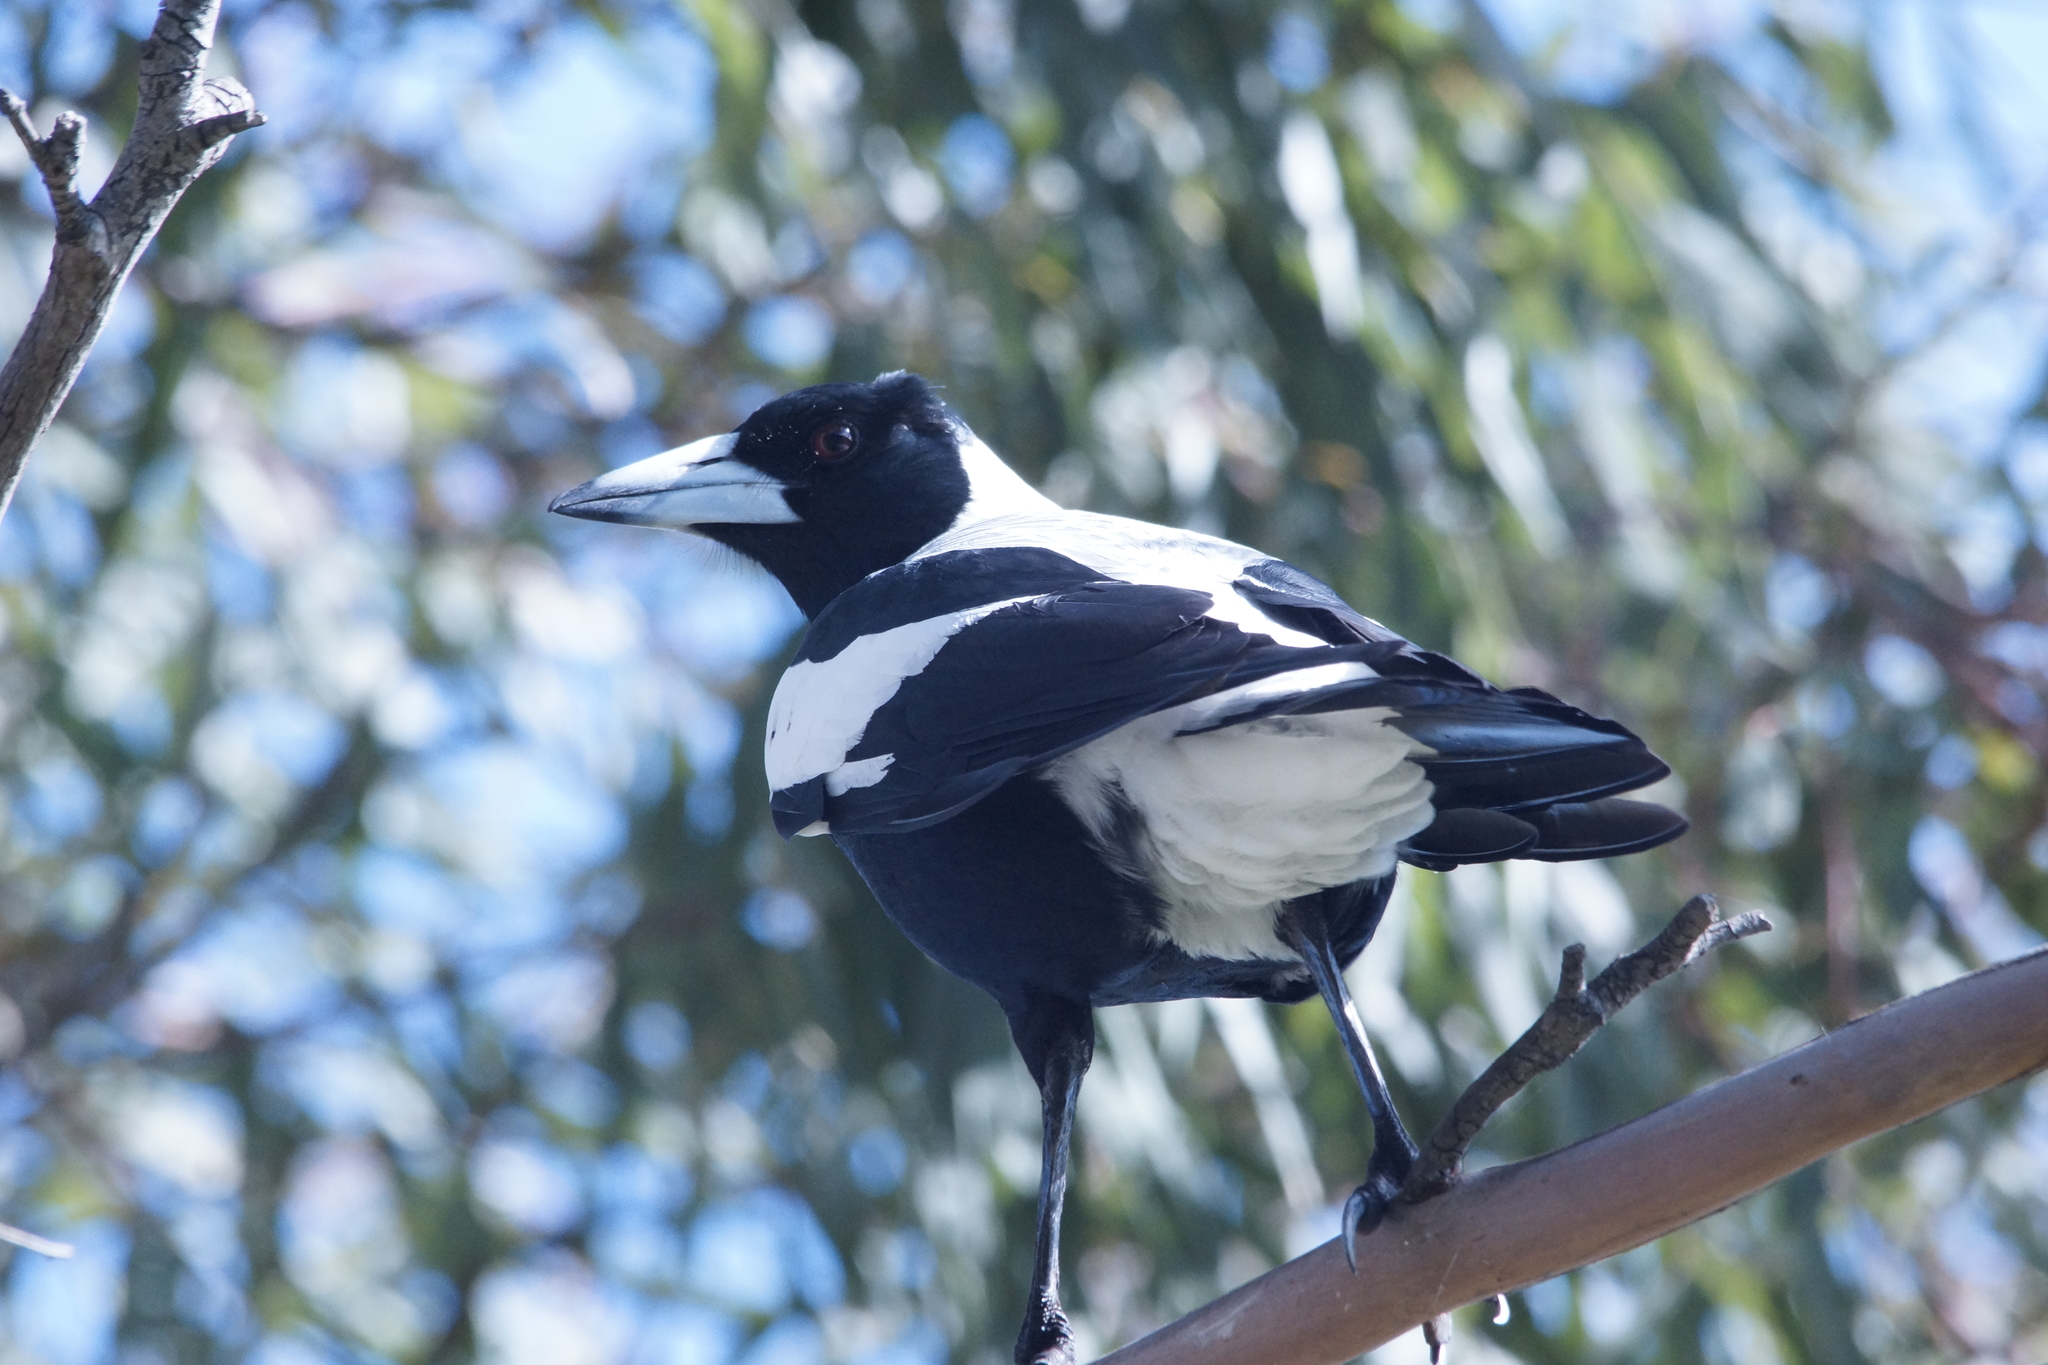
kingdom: Animalia
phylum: Chordata
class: Aves
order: Passeriformes
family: Cracticidae
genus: Gymnorhina
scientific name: Gymnorhina tibicen
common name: Australian magpie
